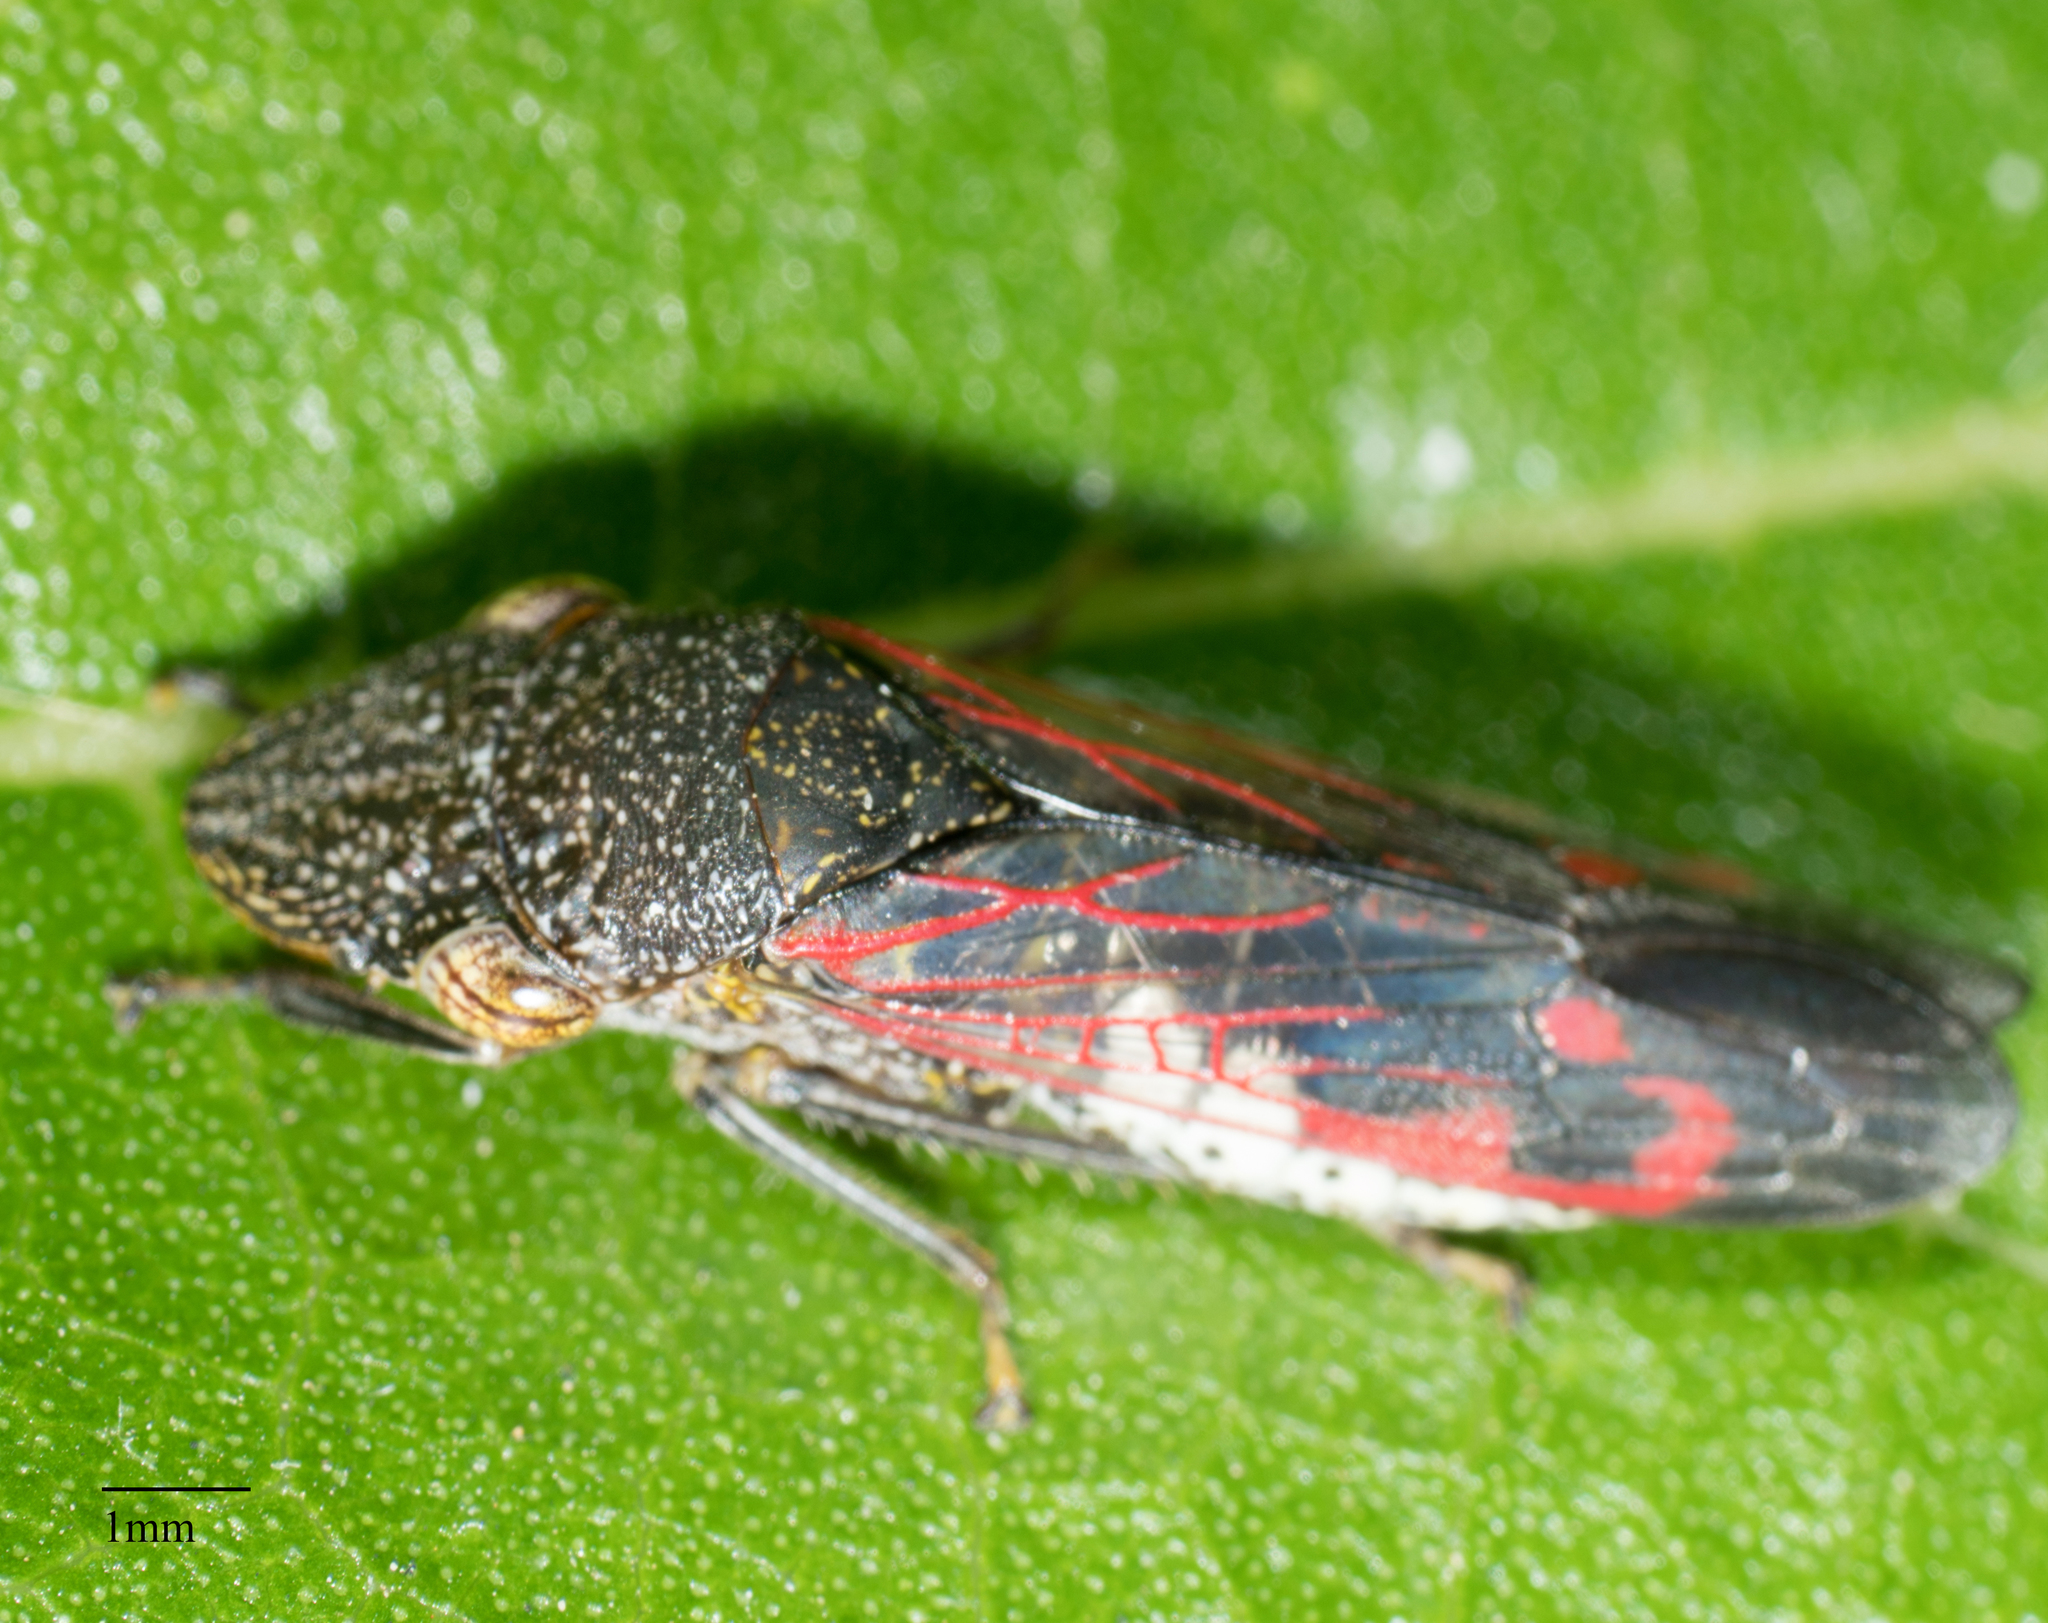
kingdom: Animalia
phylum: Arthropoda
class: Insecta
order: Hemiptera
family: Cicadellidae
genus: Homalodisca
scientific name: Homalodisca vitripennis
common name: Glassy-winged sharpshooter
